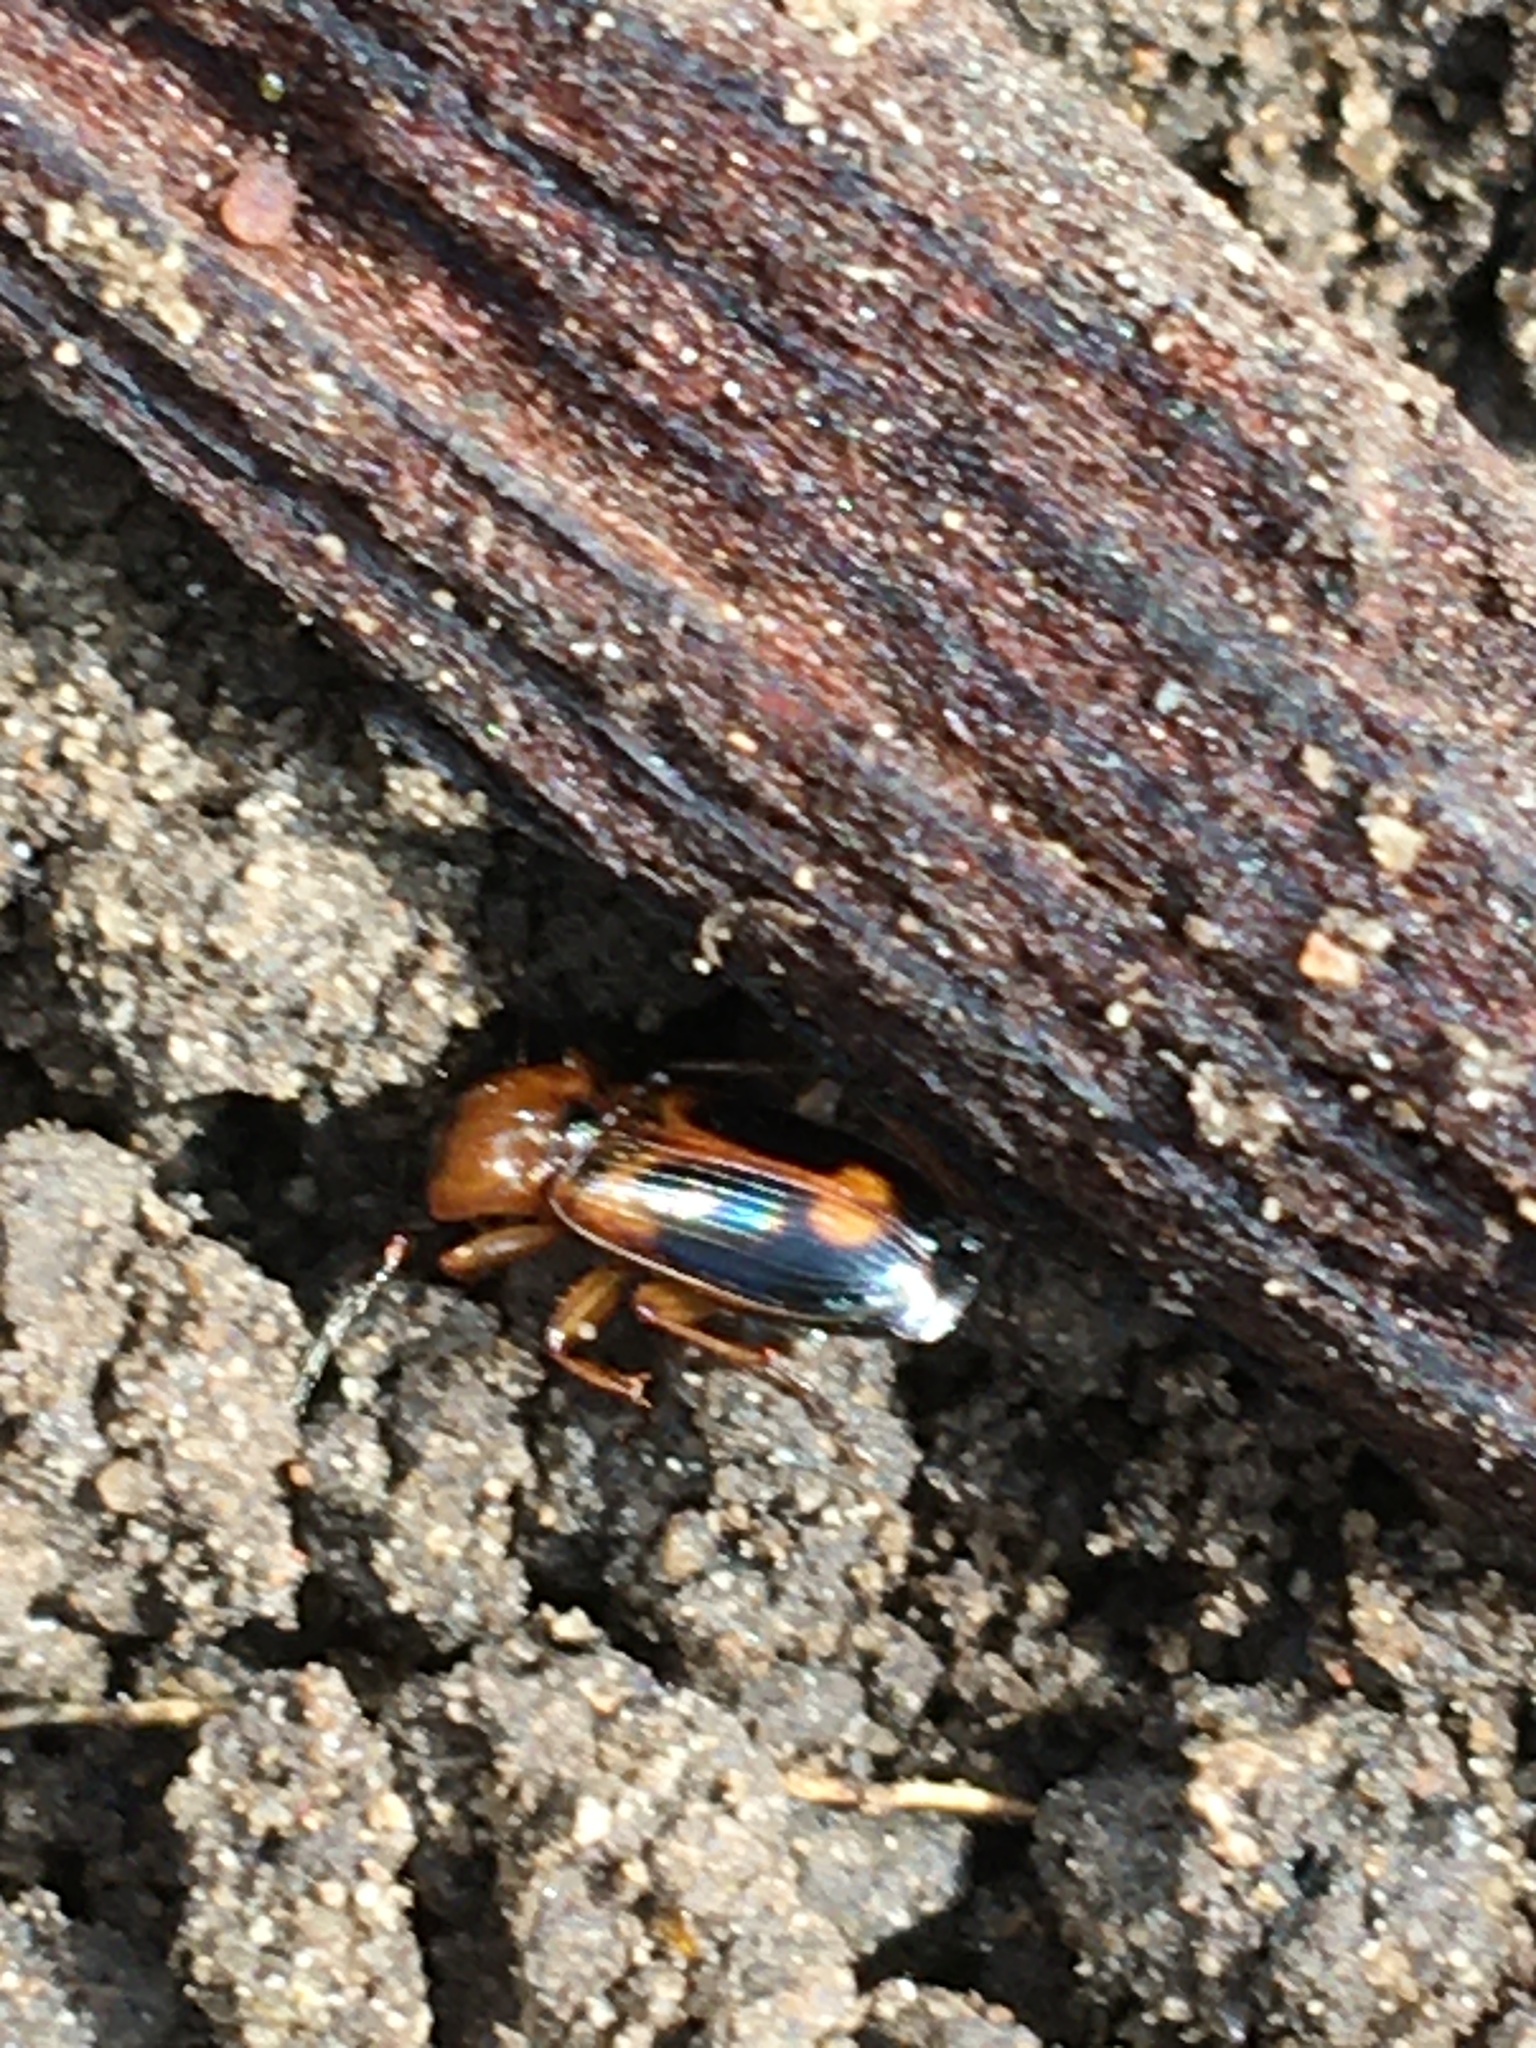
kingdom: Animalia
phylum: Arthropoda
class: Insecta
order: Coleoptera
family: Carabidae
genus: Badister
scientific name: Badister bullatus
